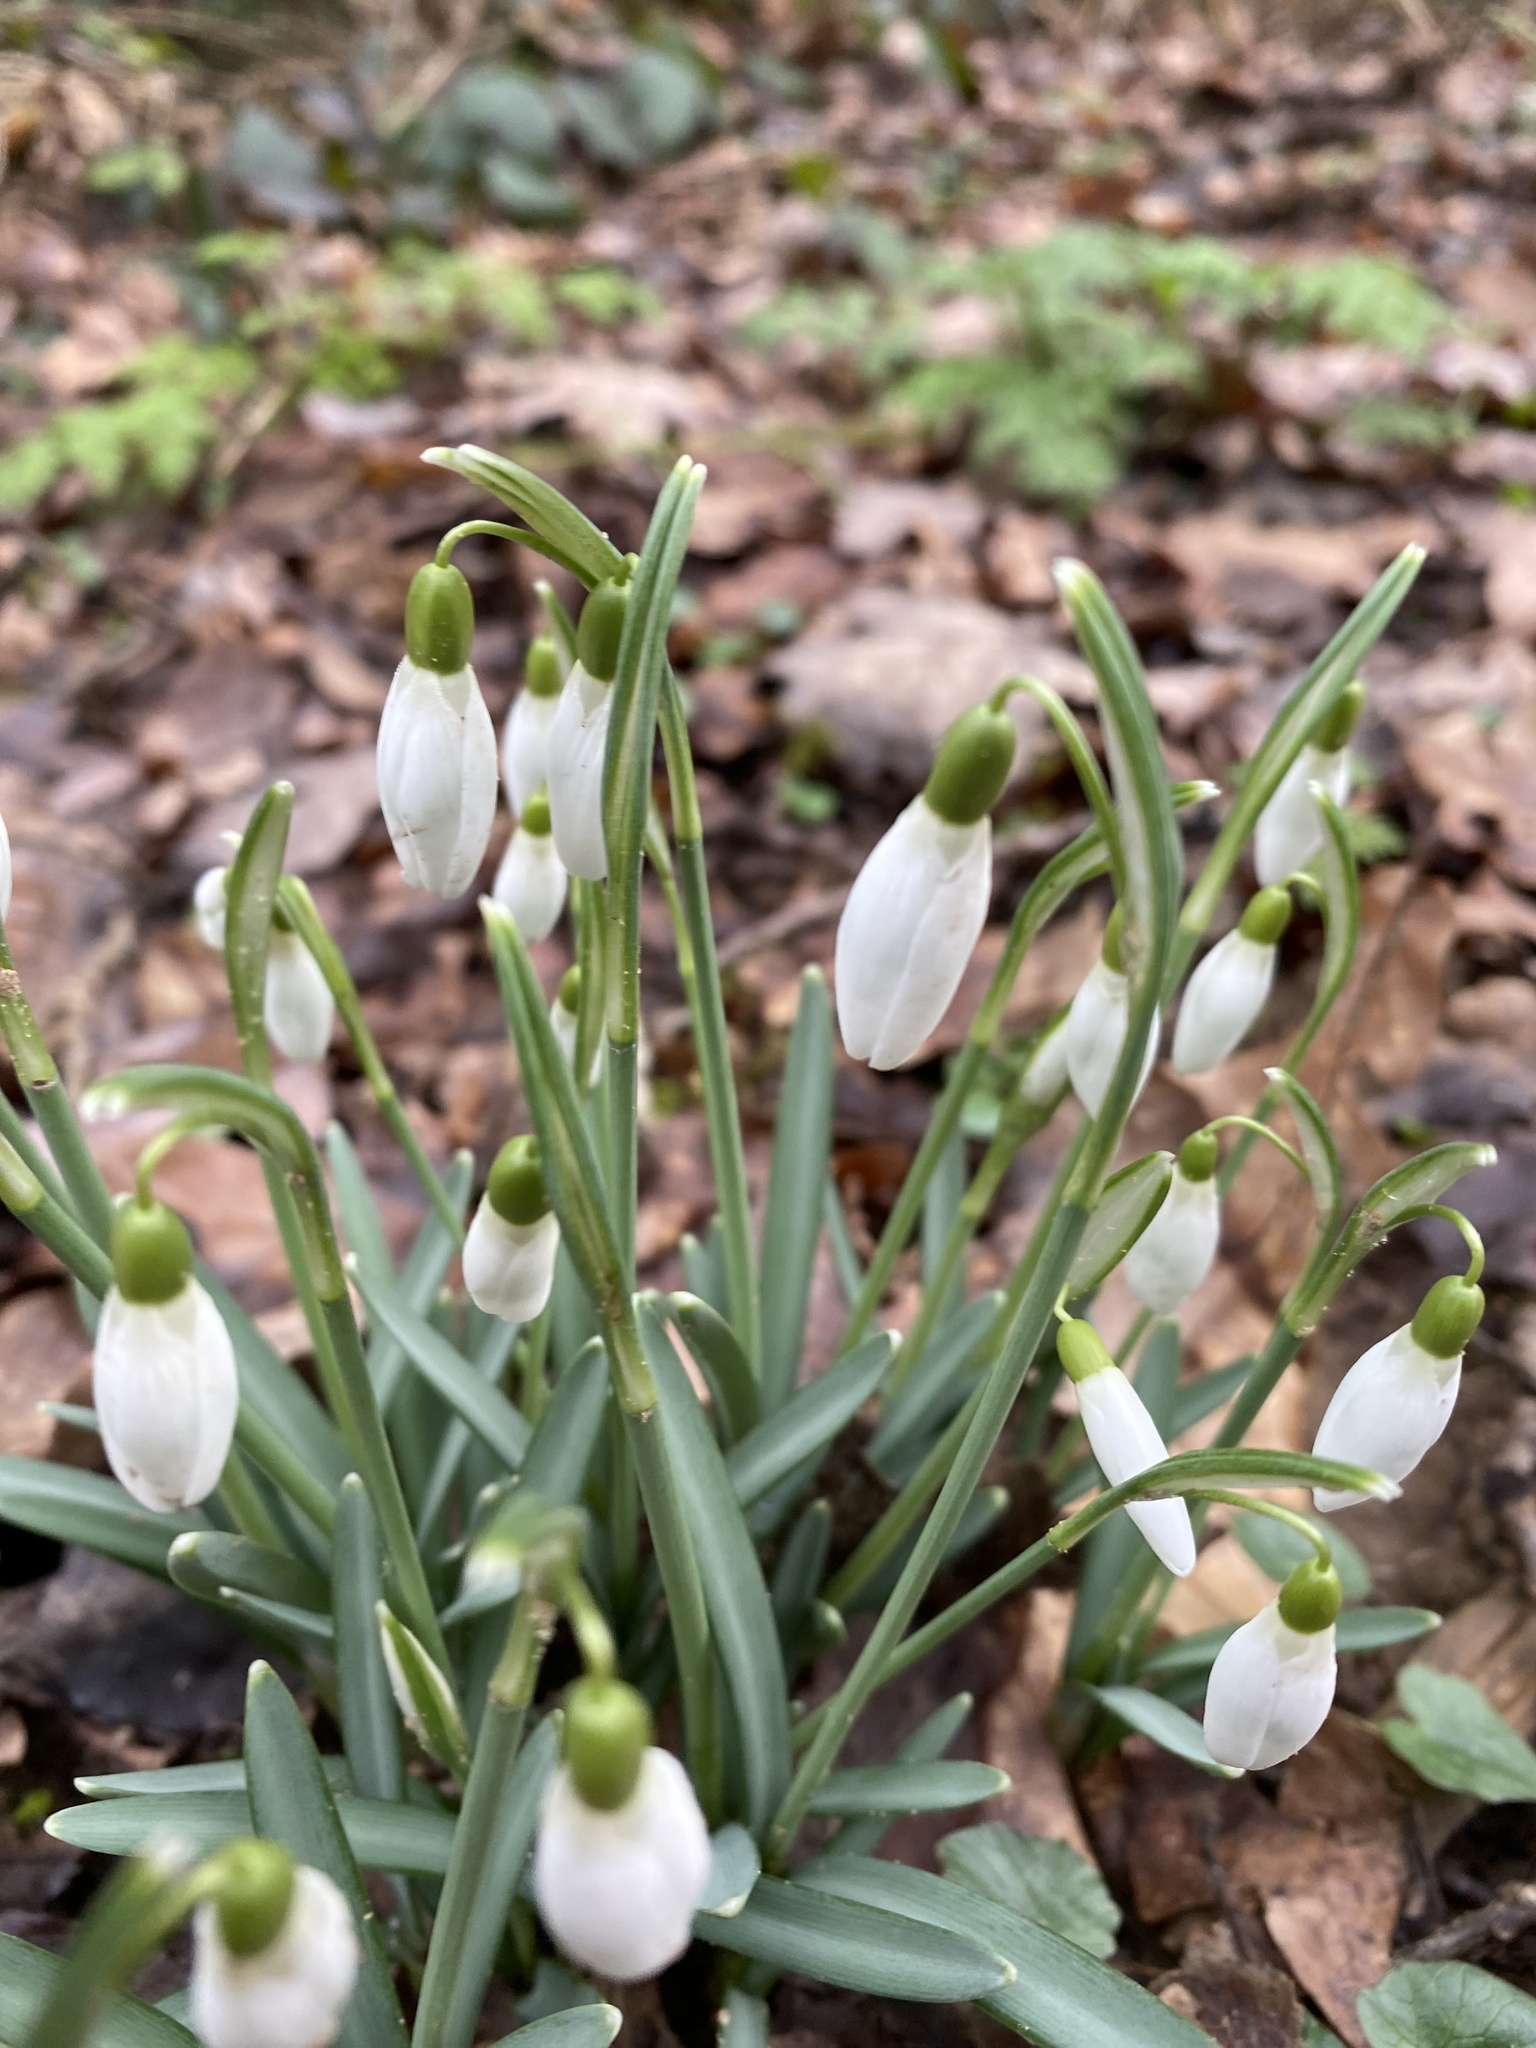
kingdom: Plantae
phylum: Tracheophyta
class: Liliopsida
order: Asparagales
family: Amaryllidaceae
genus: Galanthus
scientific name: Galanthus nivalis
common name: Snowdrop
